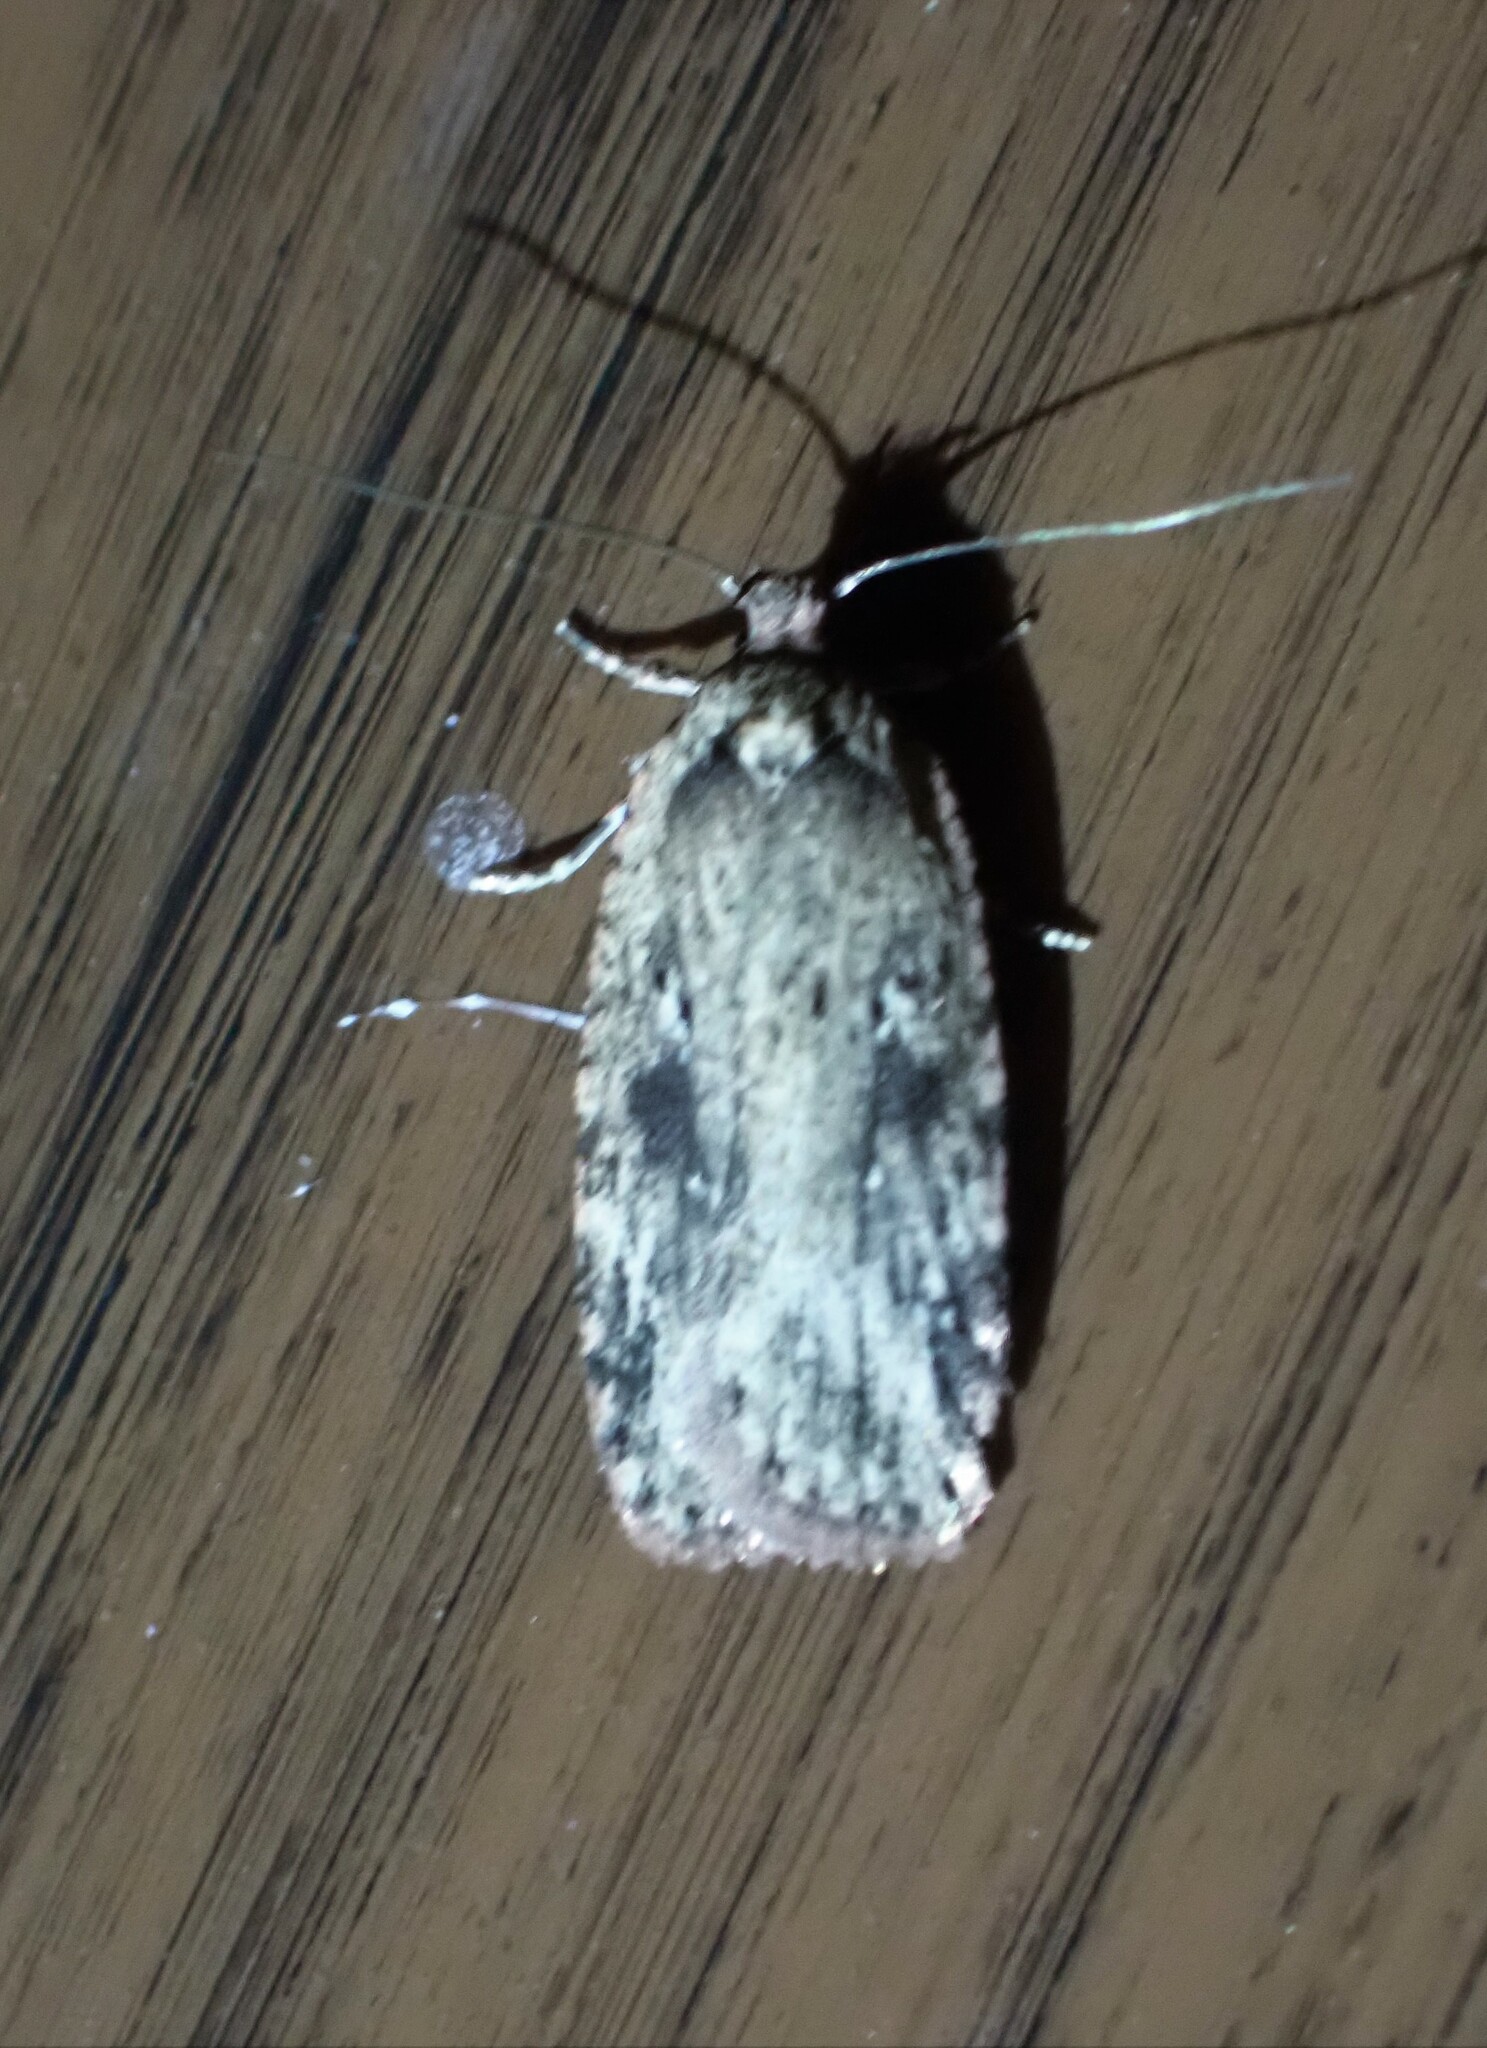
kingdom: Animalia
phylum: Arthropoda
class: Insecta
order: Lepidoptera
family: Depressariidae
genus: Agonopterix
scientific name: Agonopterix pulvipennella
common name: Goldenrod leafffolder
